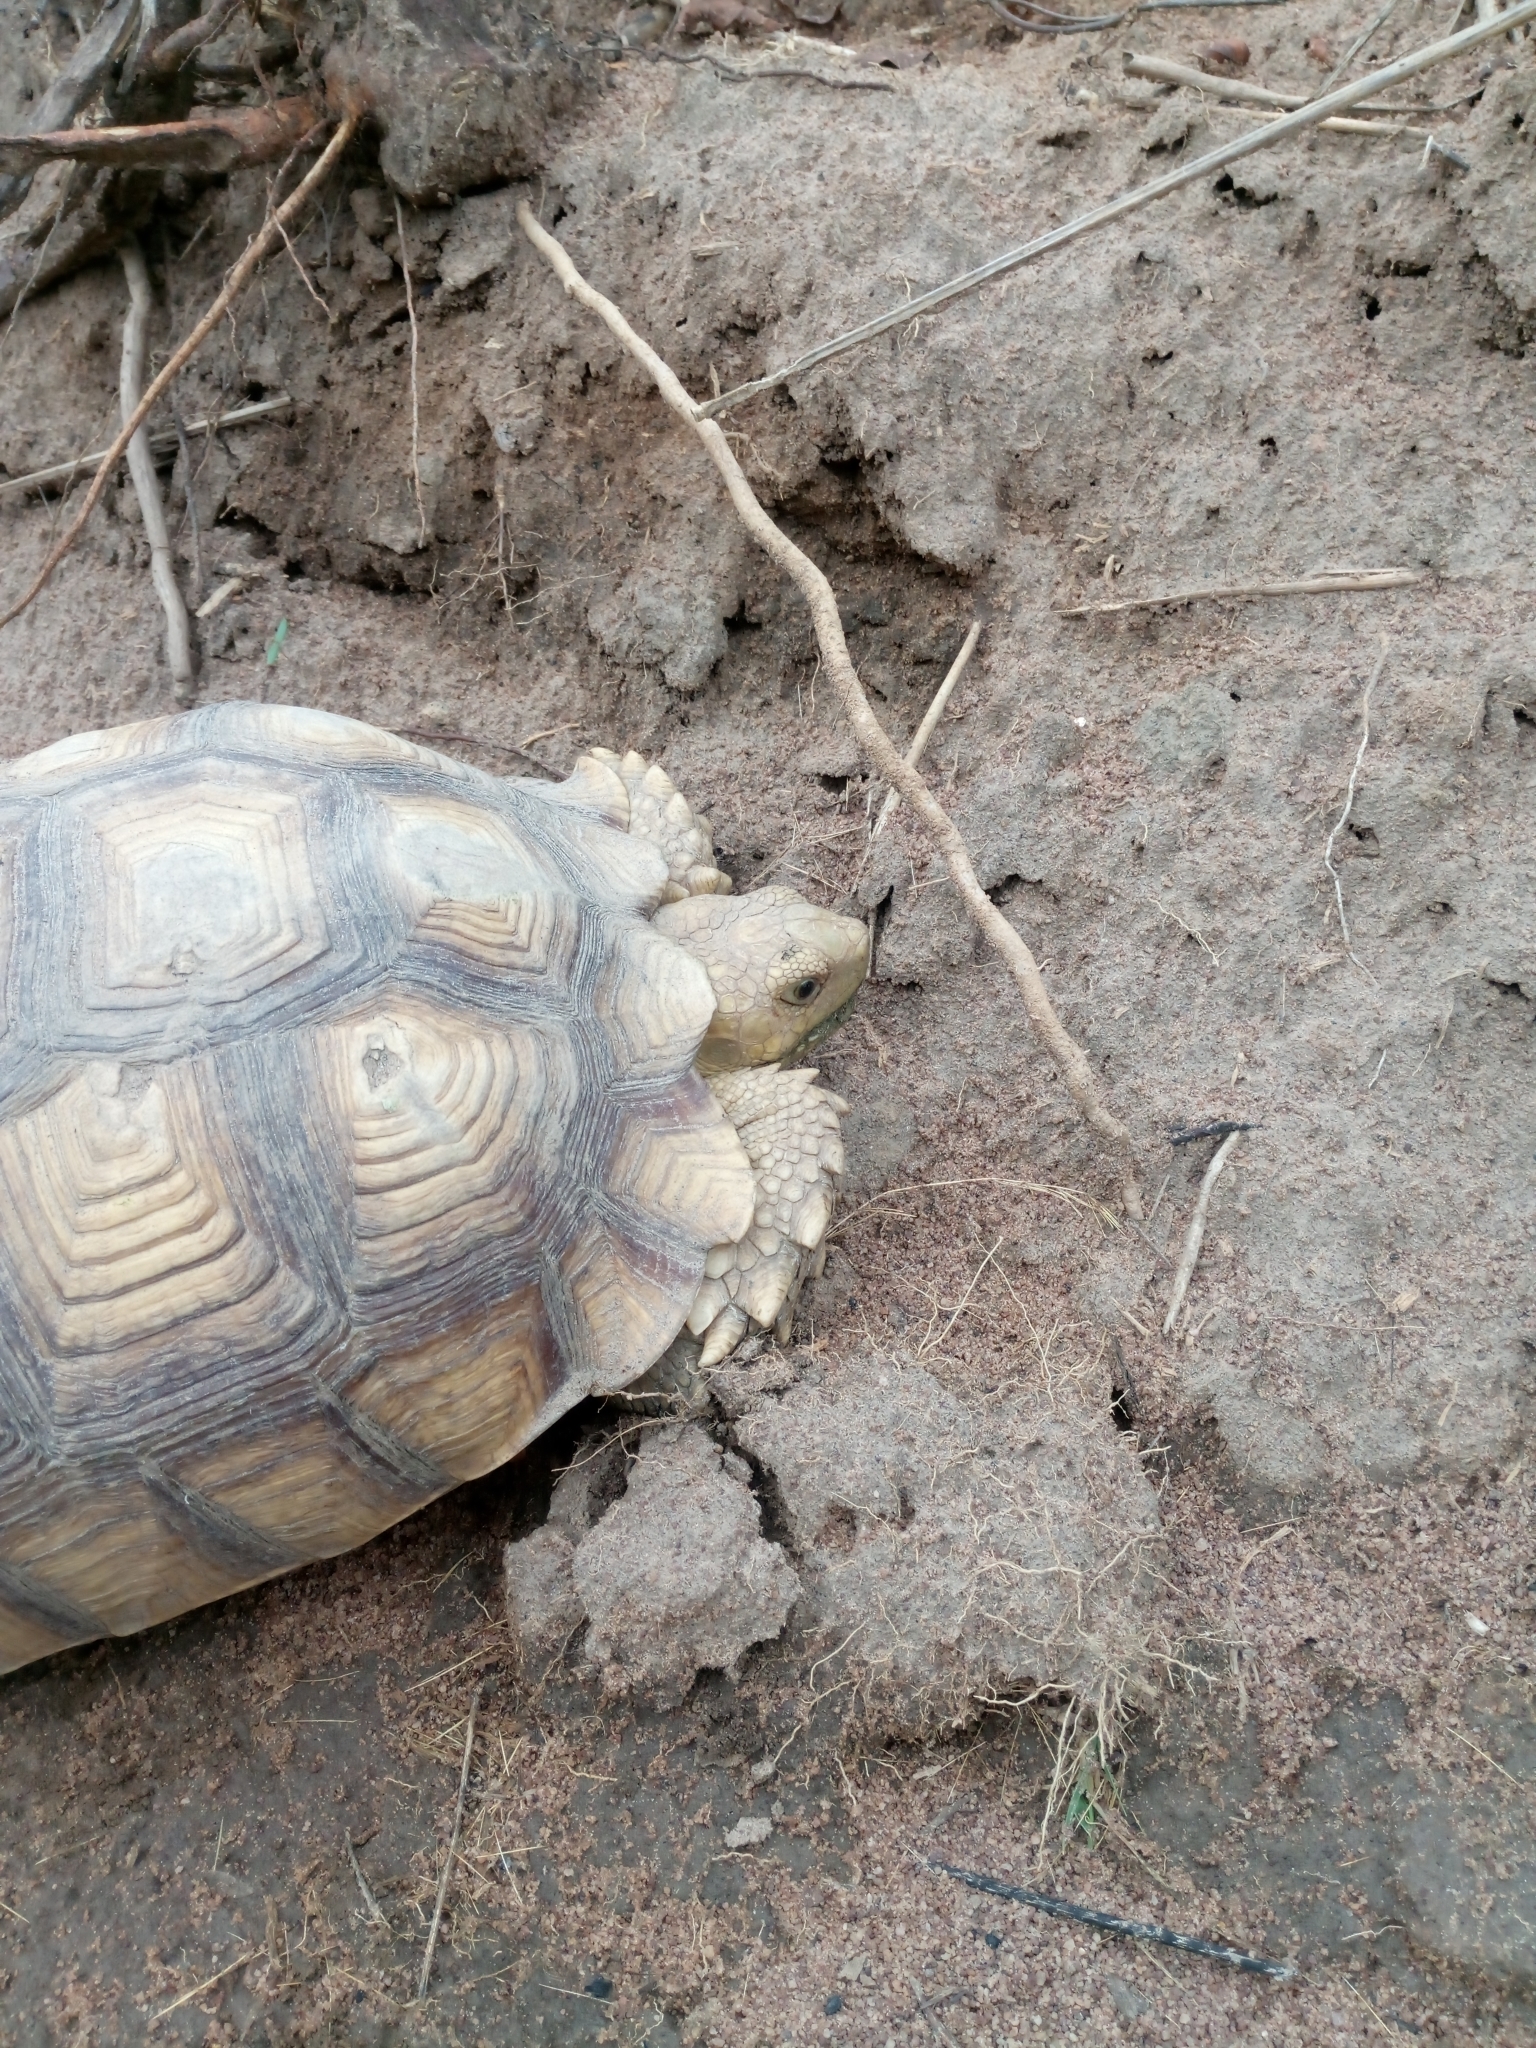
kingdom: Animalia
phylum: Chordata
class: Testudines
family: Testudinidae
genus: Centrochelys
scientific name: Centrochelys sulcata
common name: African spurred tortoise
